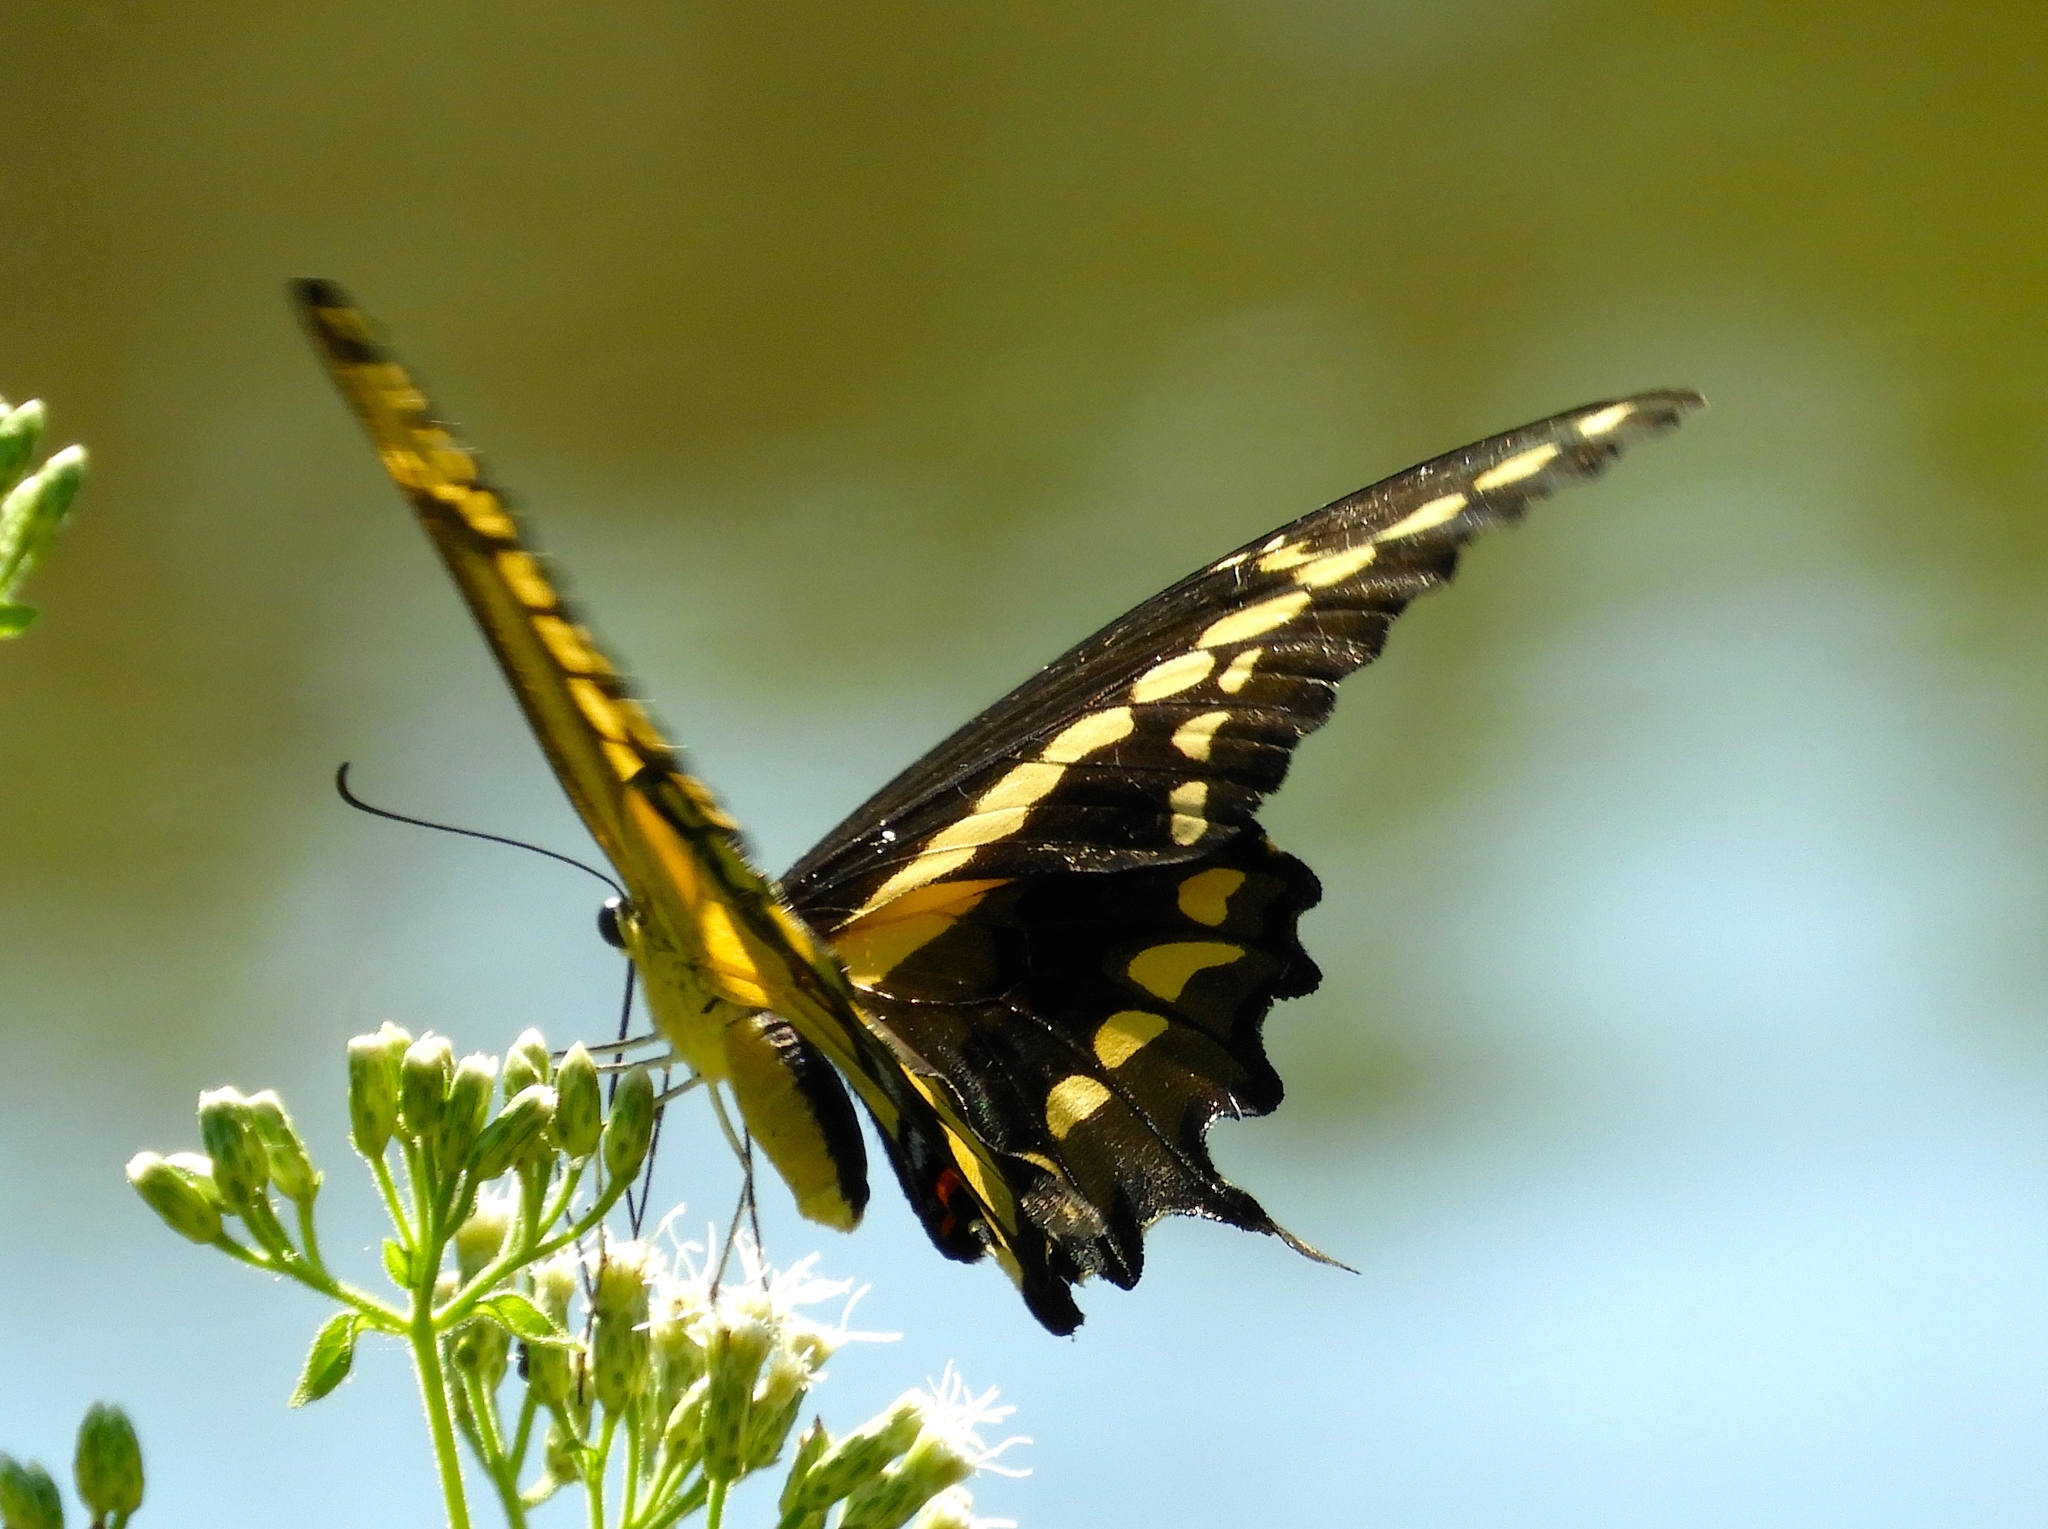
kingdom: Animalia
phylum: Arthropoda
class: Insecta
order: Lepidoptera
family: Papilionidae
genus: Papilio
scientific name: Papilio rumiko
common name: Western giant swallowtail
